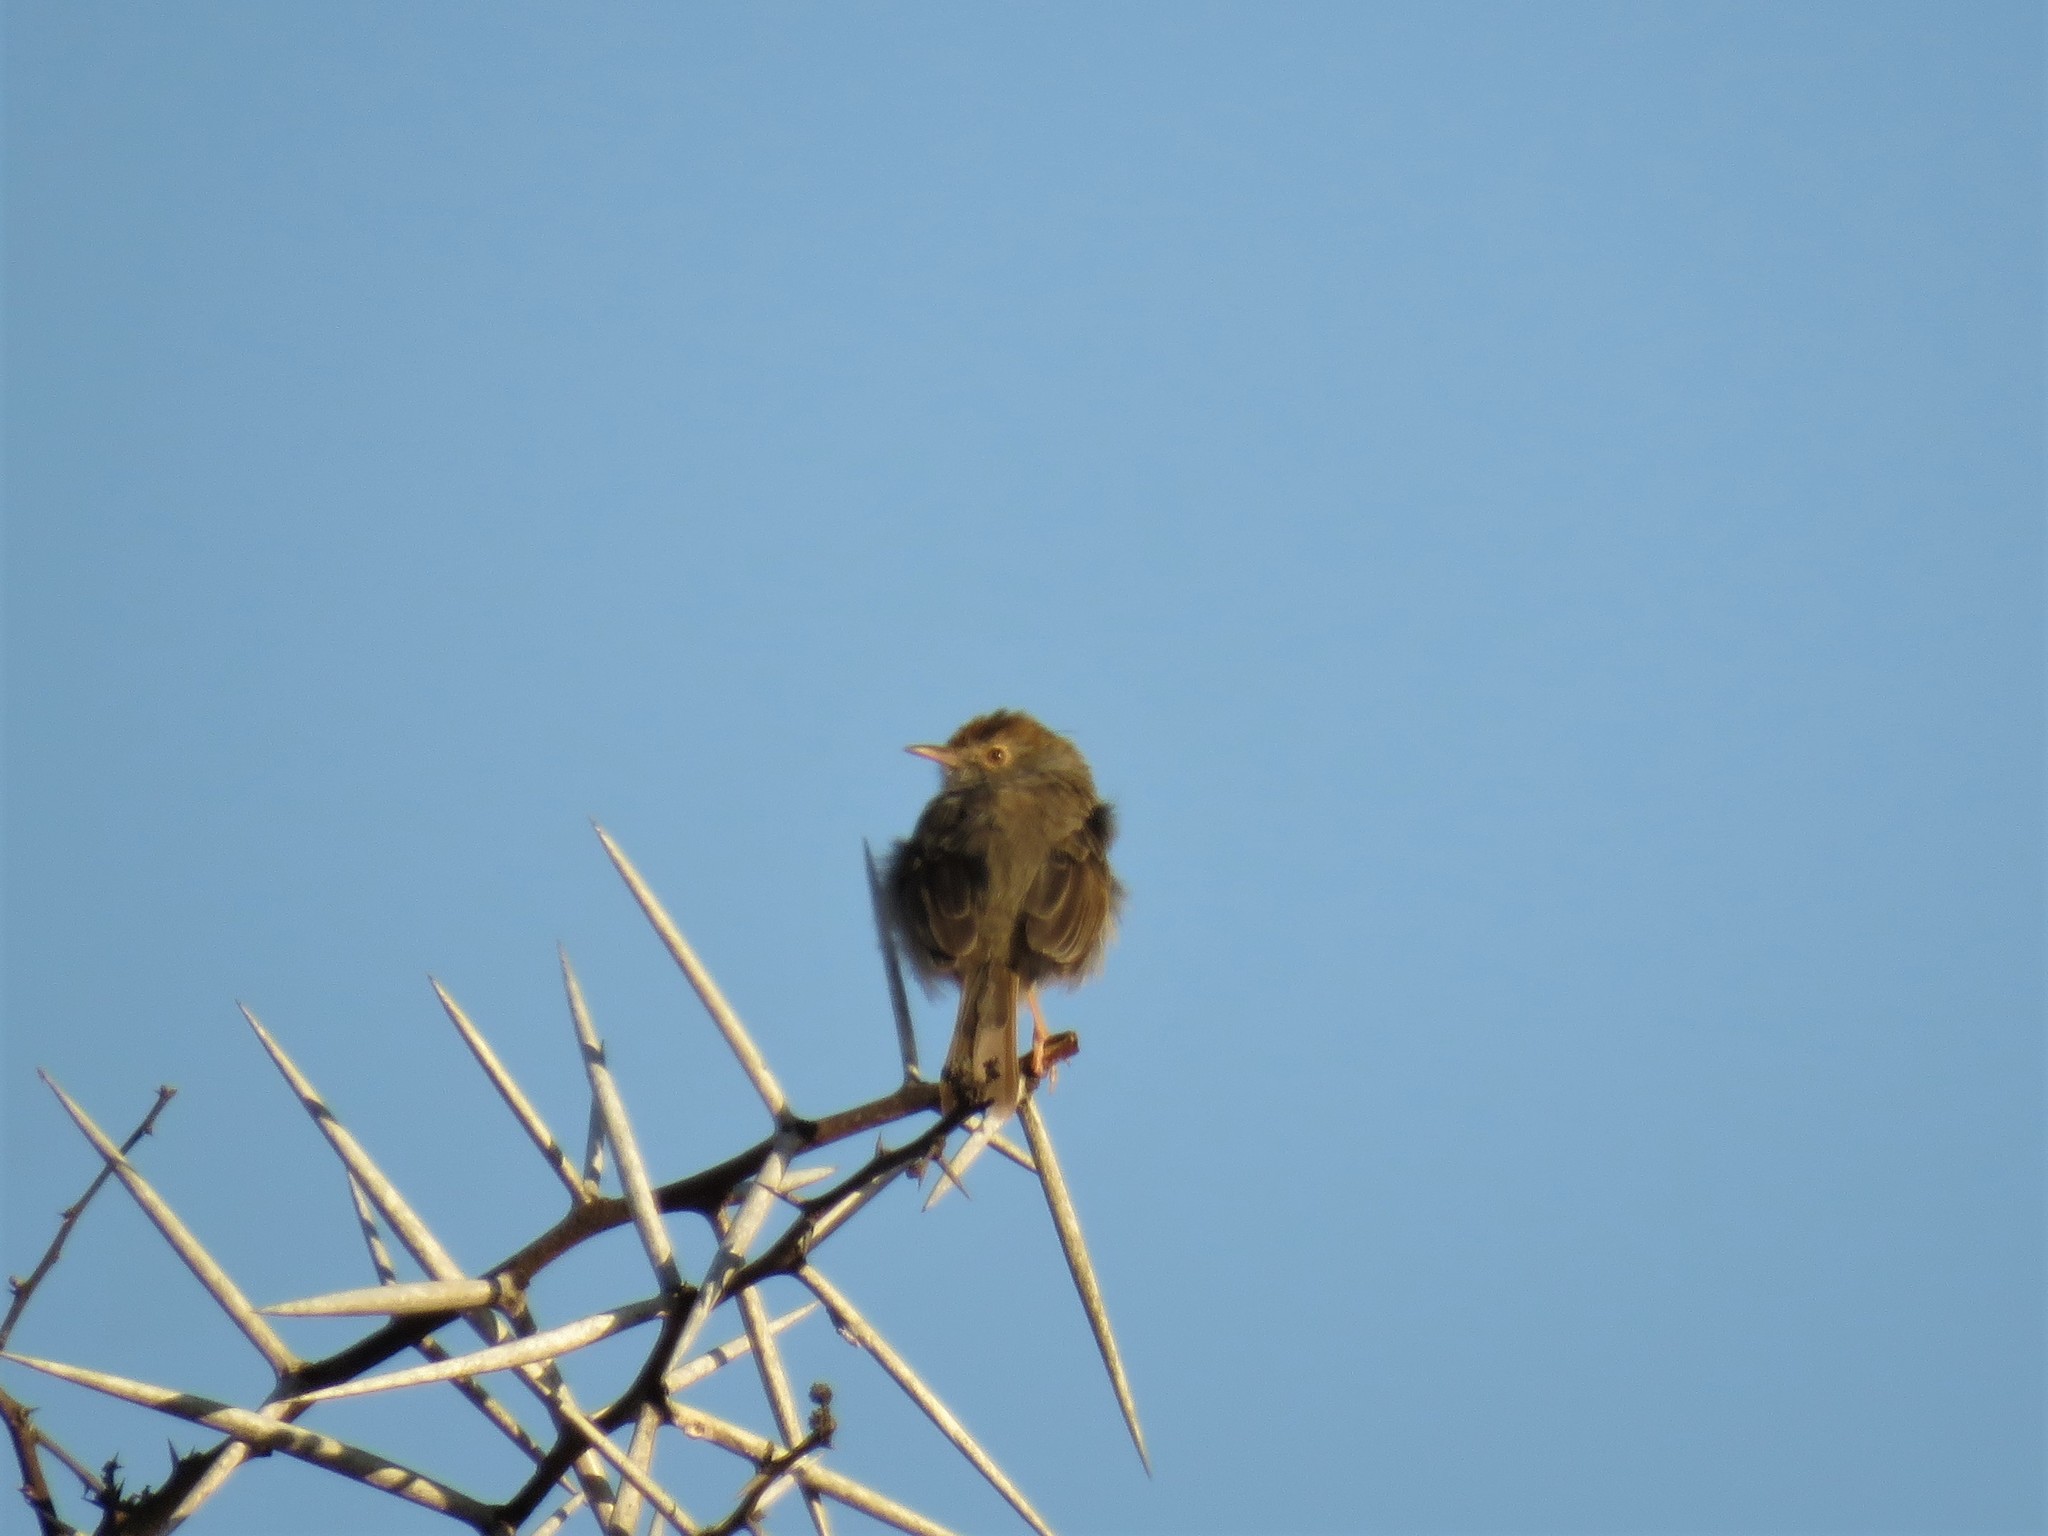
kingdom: Animalia
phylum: Chordata
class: Aves
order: Passeriformes
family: Cisticolidae
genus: Cisticola
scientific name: Cisticola fulvicapilla
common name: Neddicky
